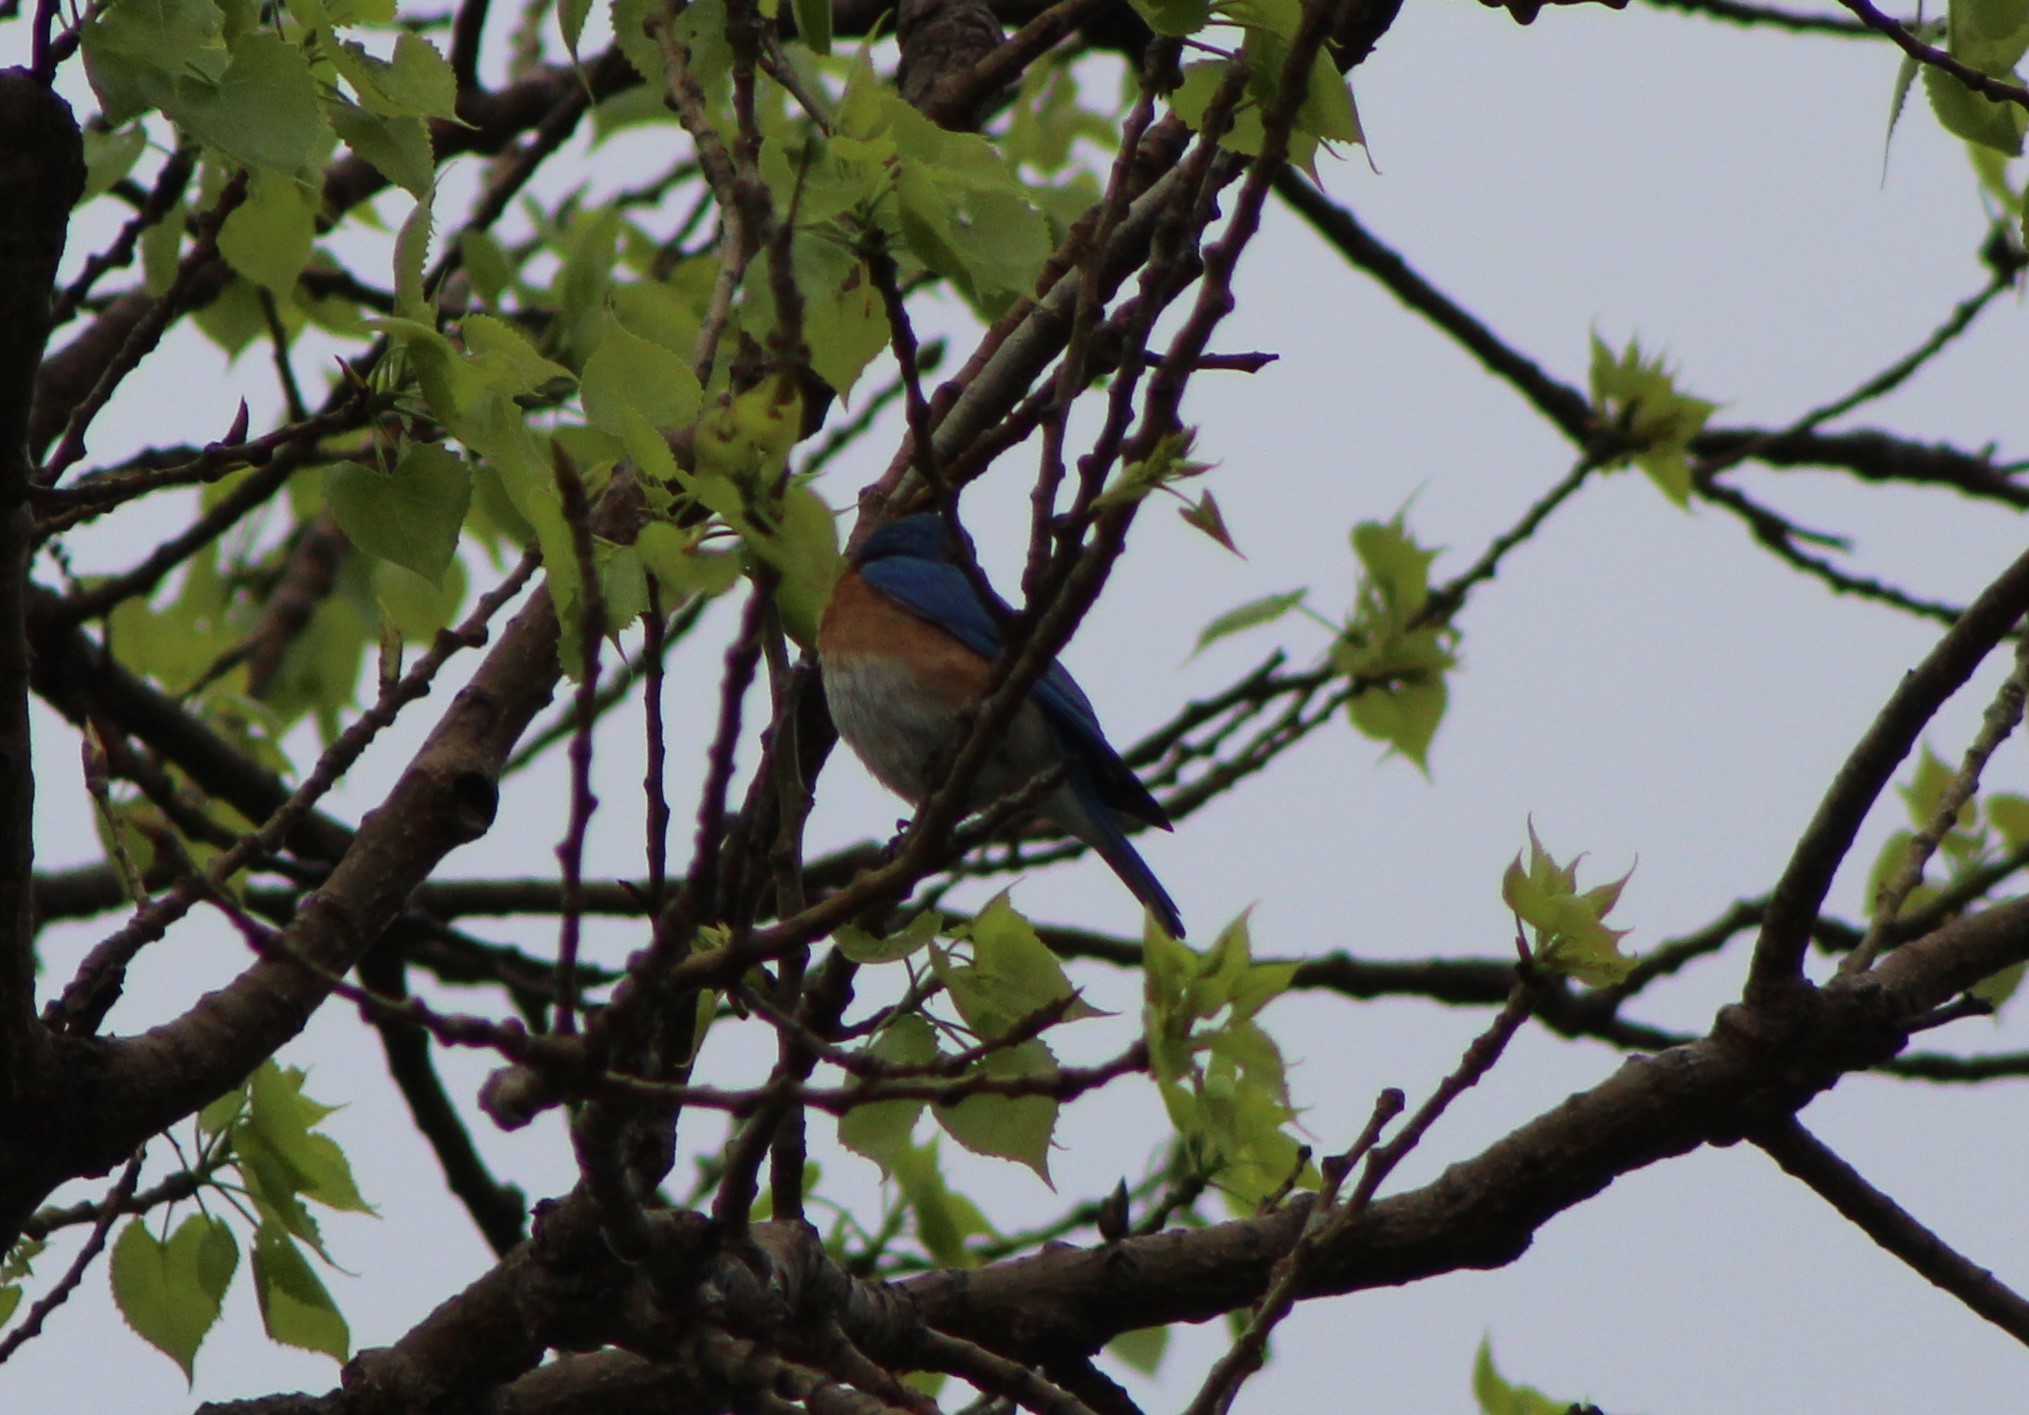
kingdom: Animalia
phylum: Chordata
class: Aves
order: Passeriformes
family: Turdidae
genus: Sialia
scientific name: Sialia sialis
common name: Eastern bluebird
